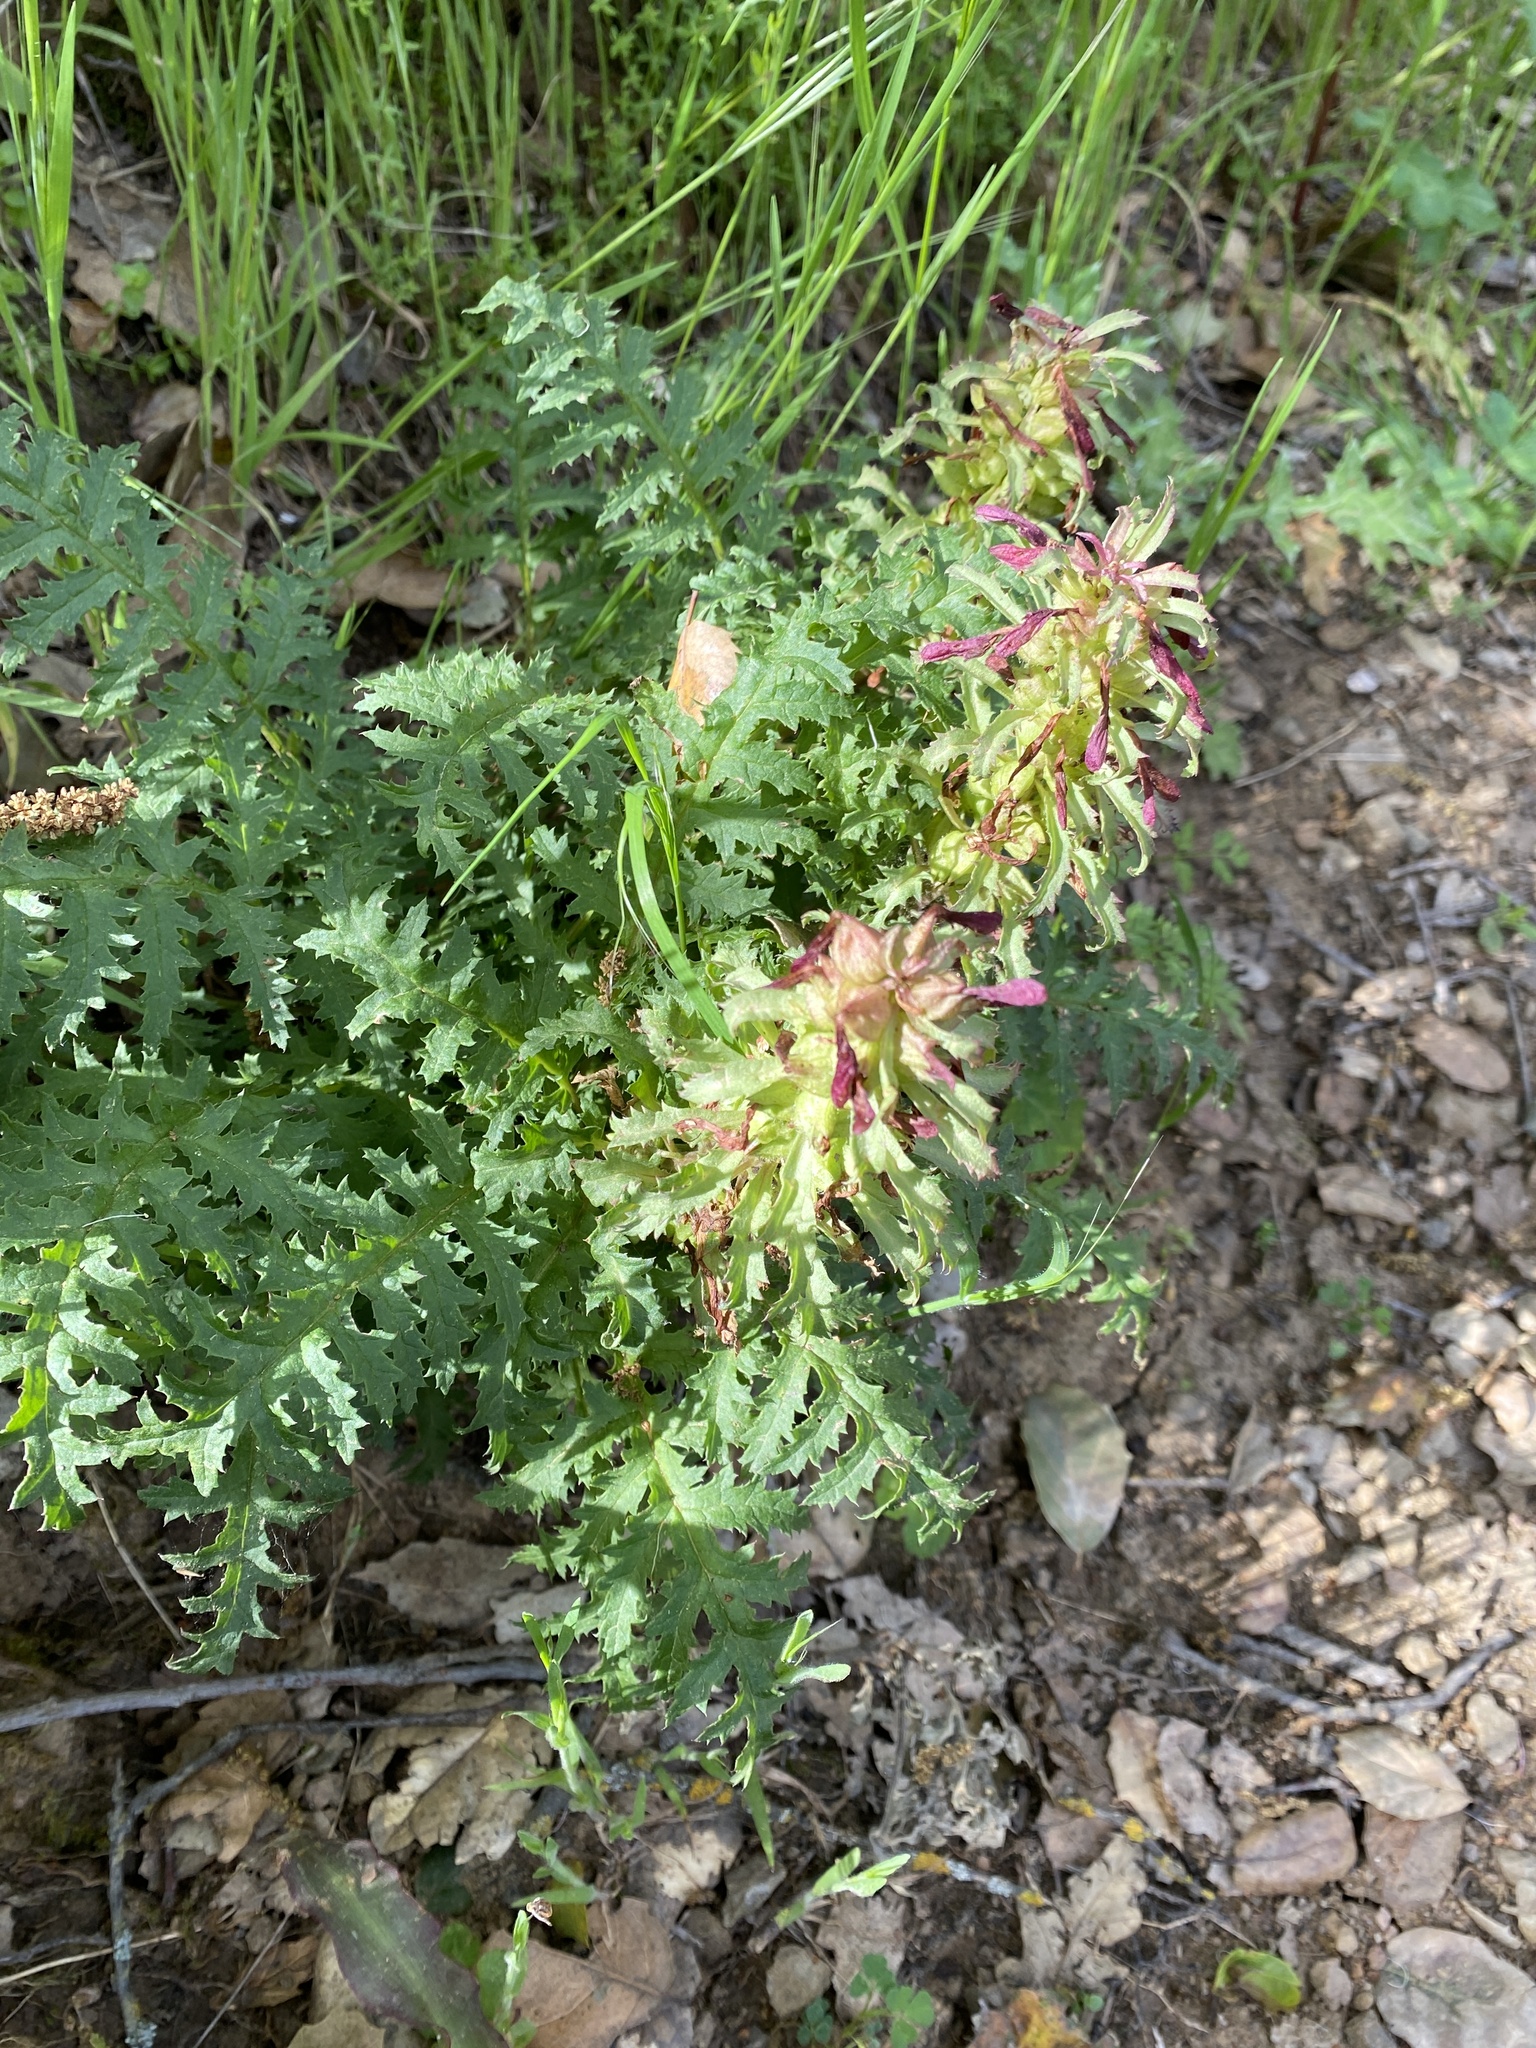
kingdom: Plantae
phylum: Tracheophyta
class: Magnoliopsida
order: Lamiales
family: Orobanchaceae
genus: Pedicularis
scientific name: Pedicularis densiflora
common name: Indian warrior
